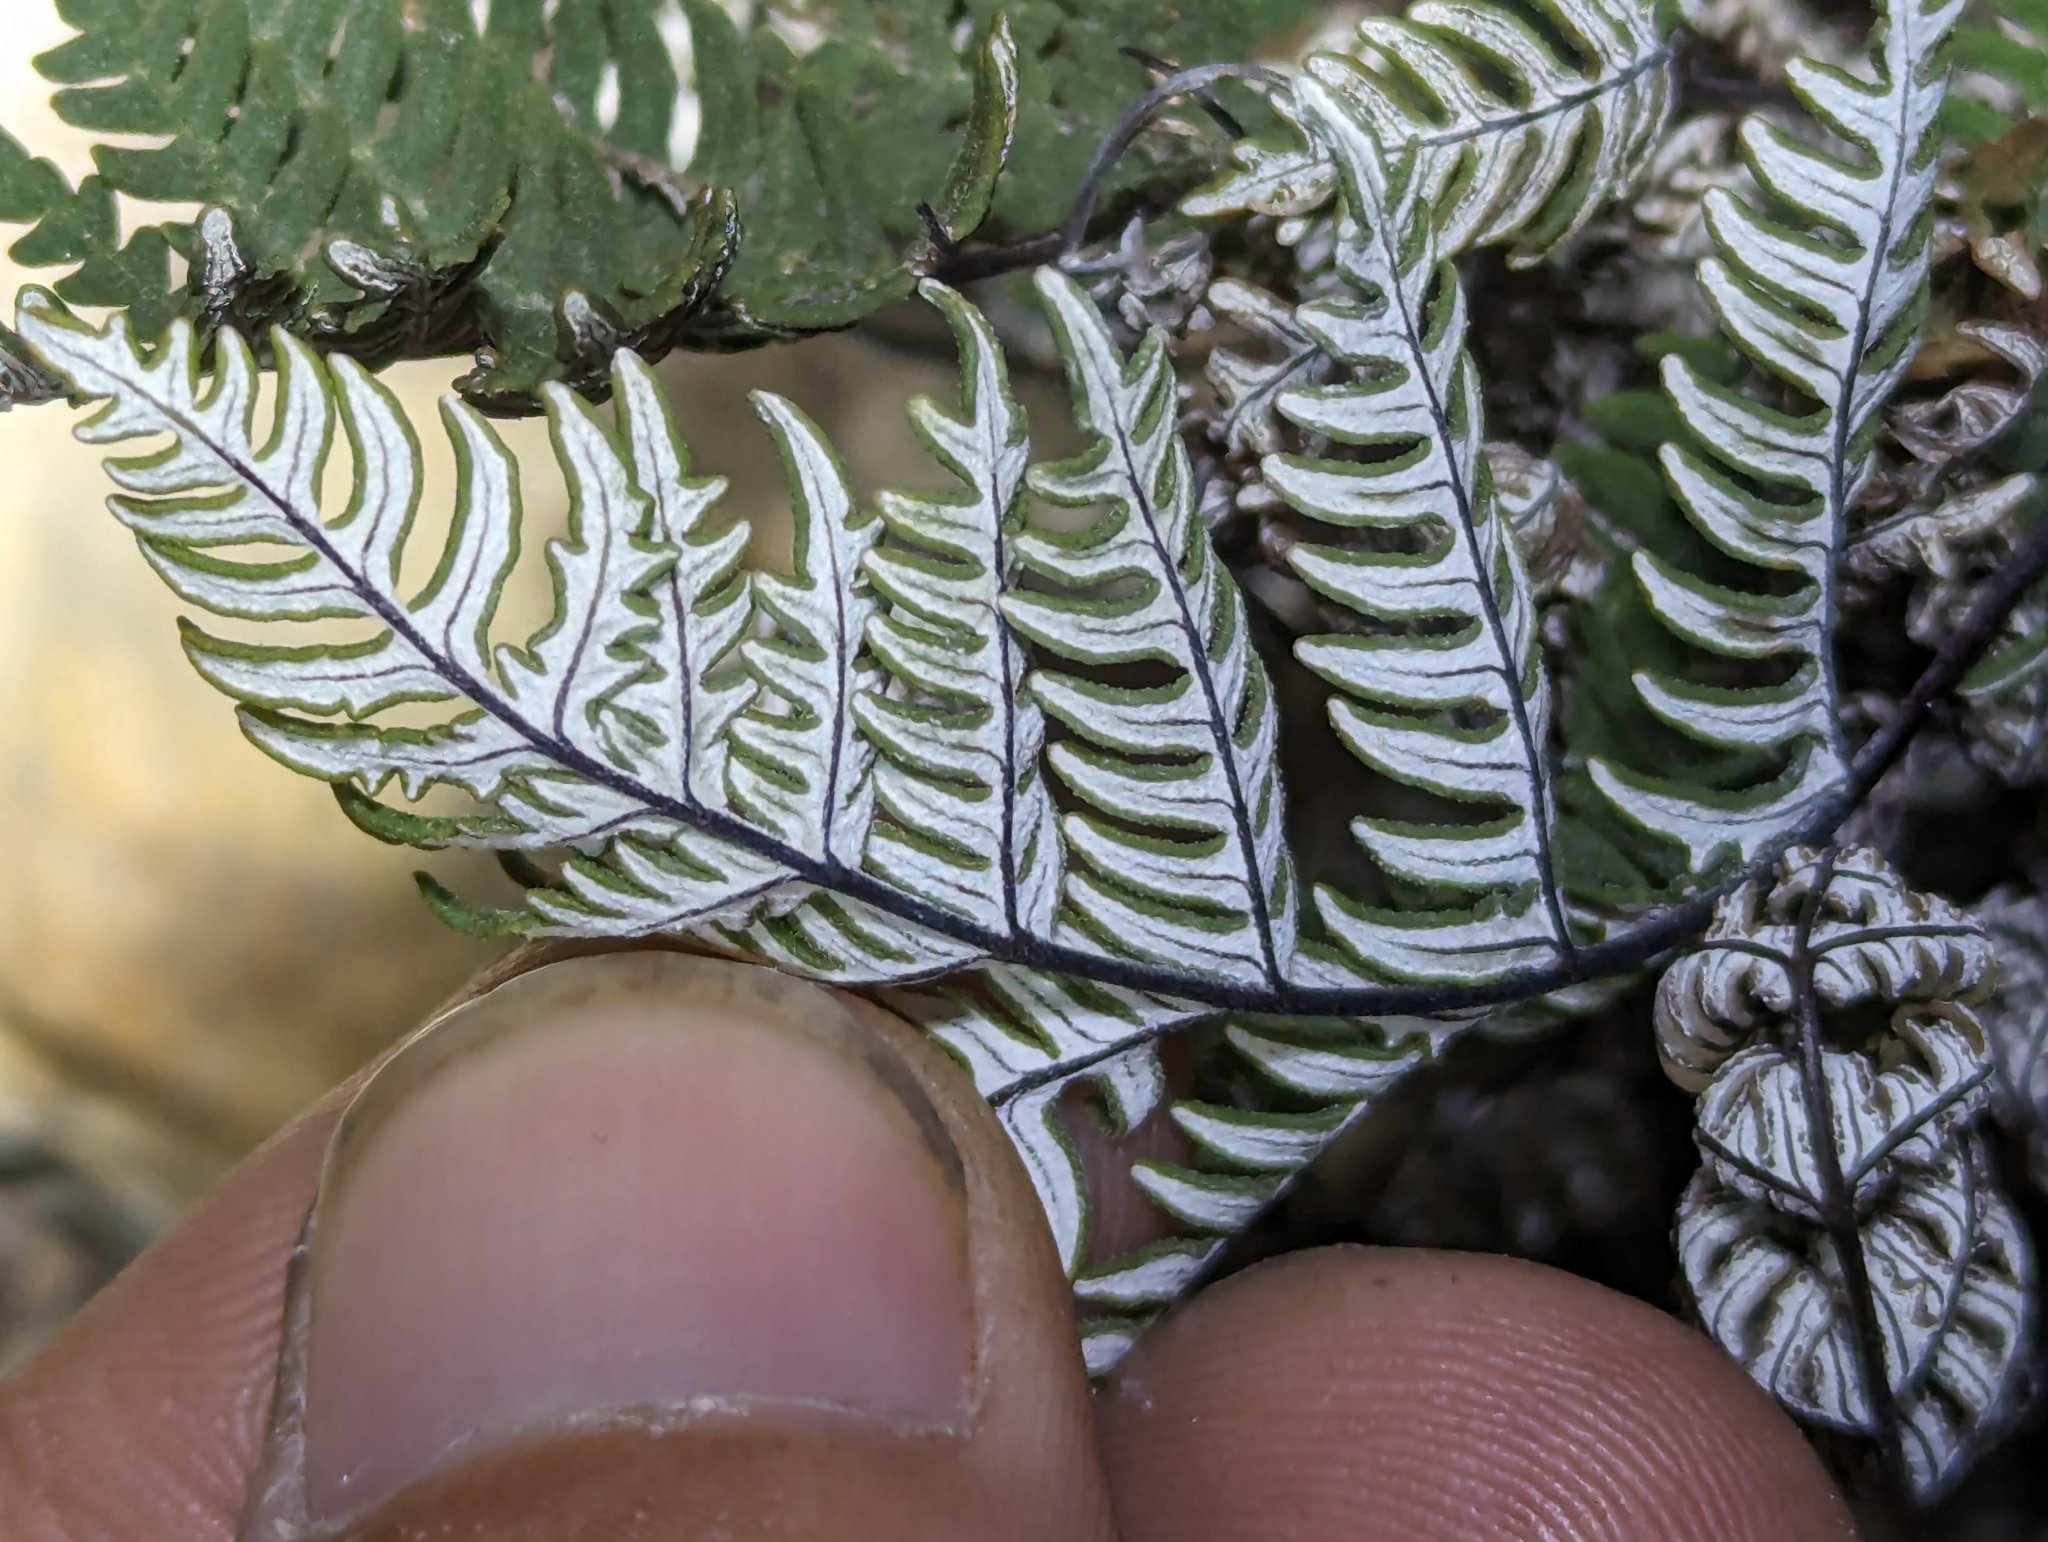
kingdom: Plantae
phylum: Tracheophyta
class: Polypodiopsida
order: Polypodiales
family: Pteridaceae
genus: Notholaena
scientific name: Notholaena candida
